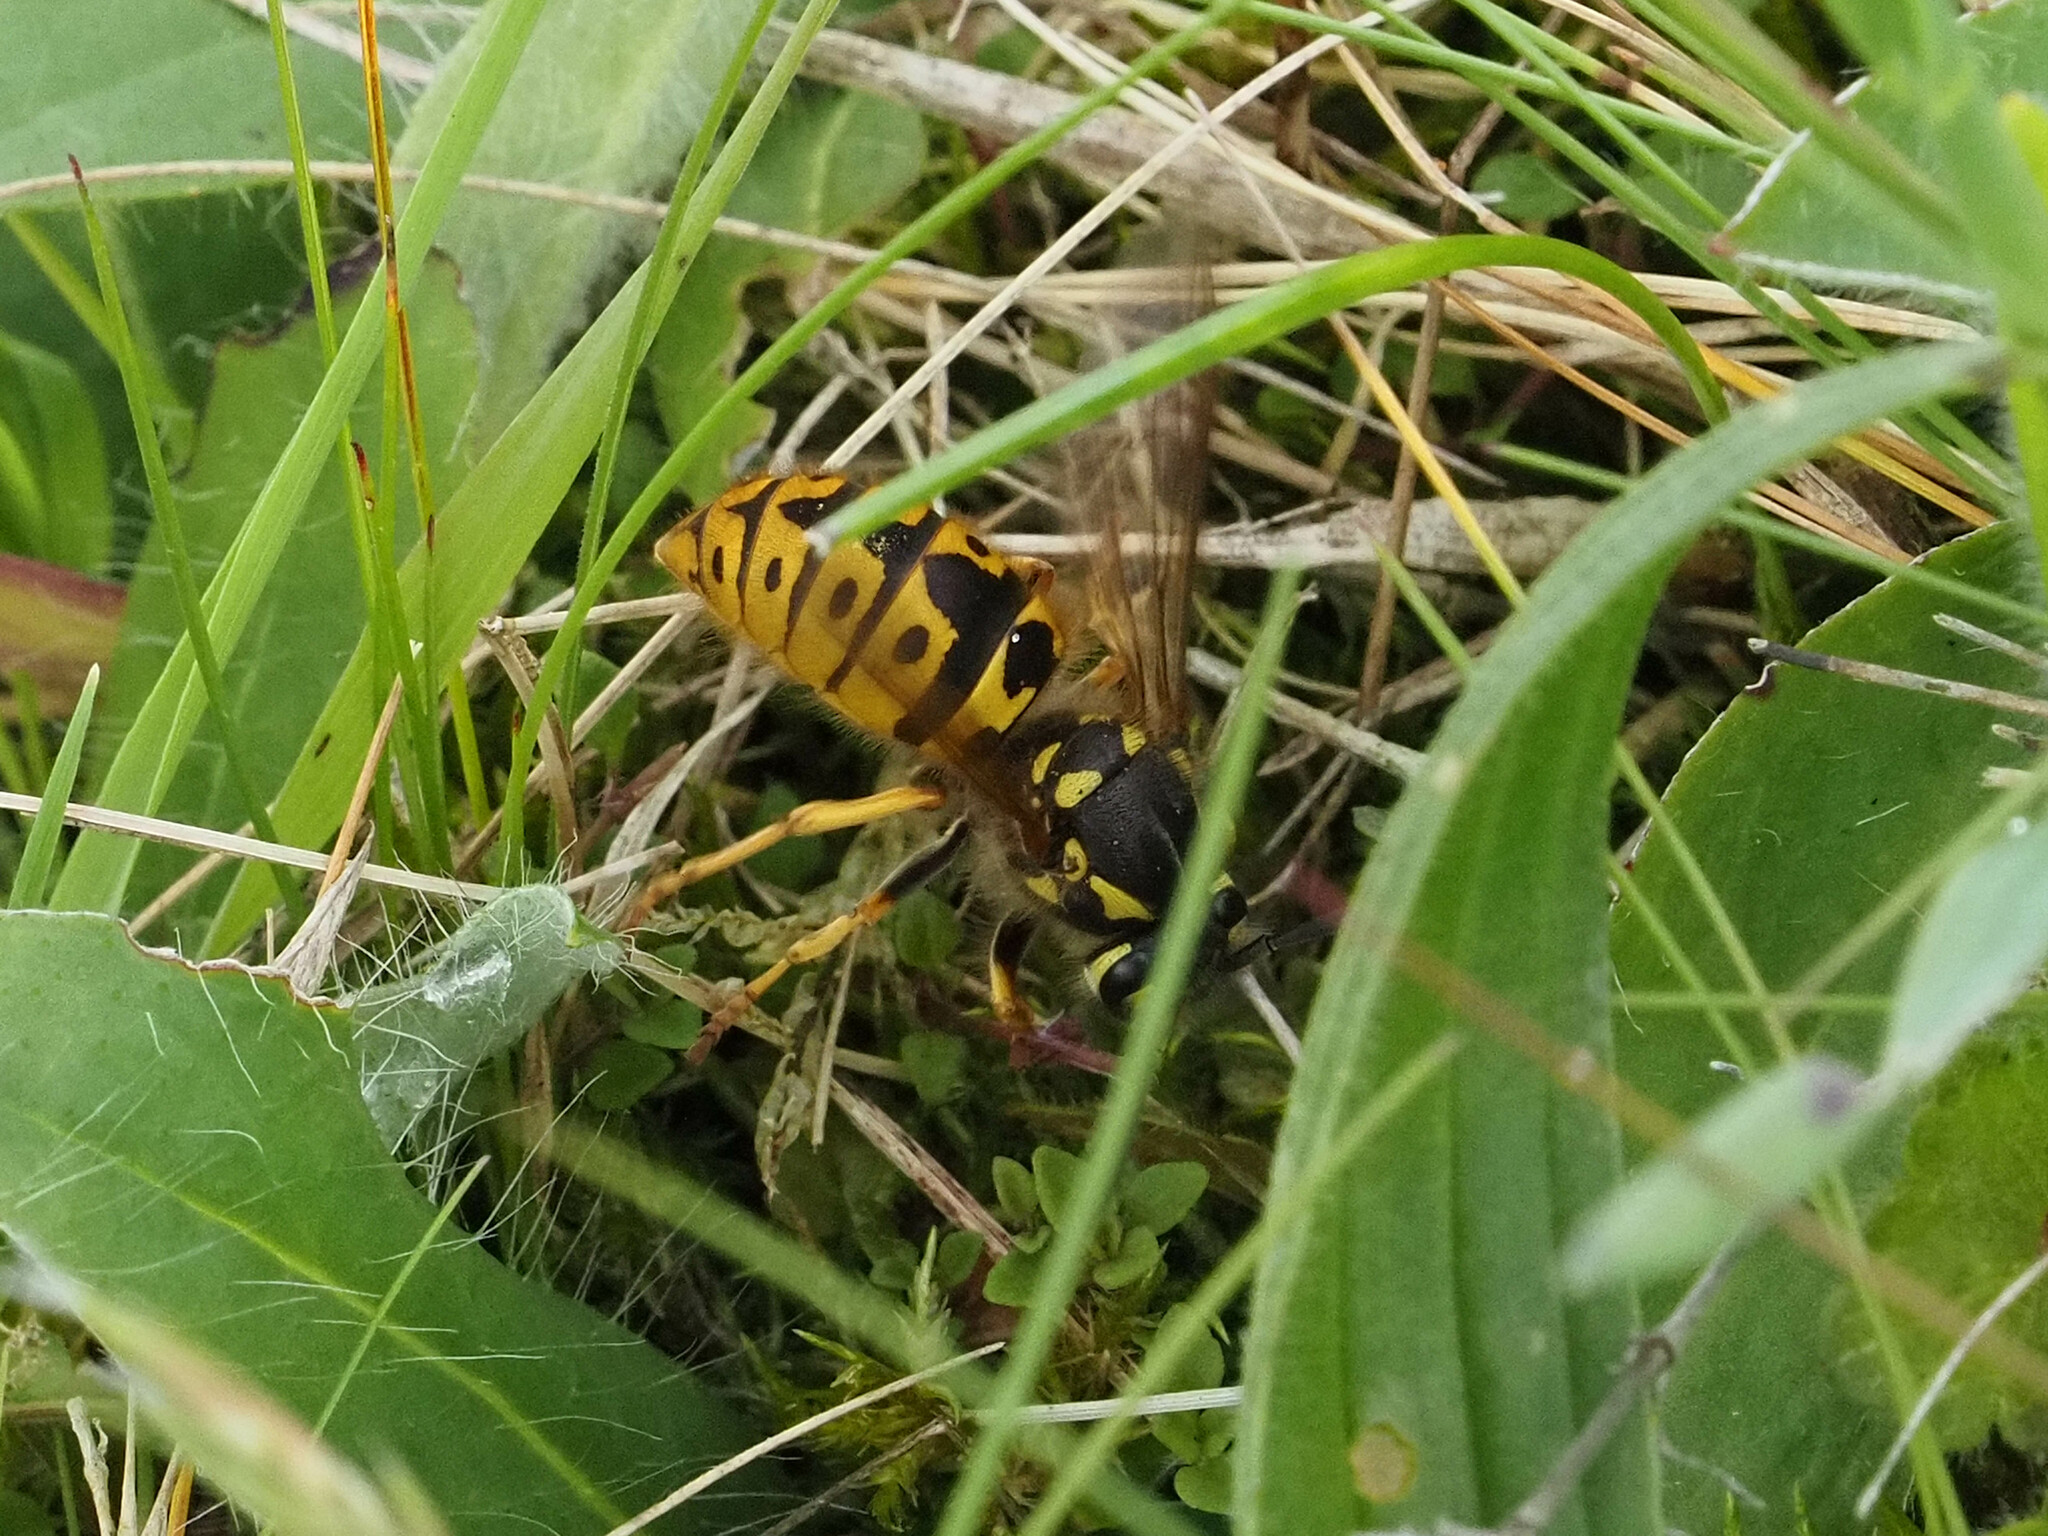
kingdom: Animalia
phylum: Arthropoda
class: Insecta
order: Hymenoptera
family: Vespidae
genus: Vespula
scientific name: Vespula germanica
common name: German wasp
